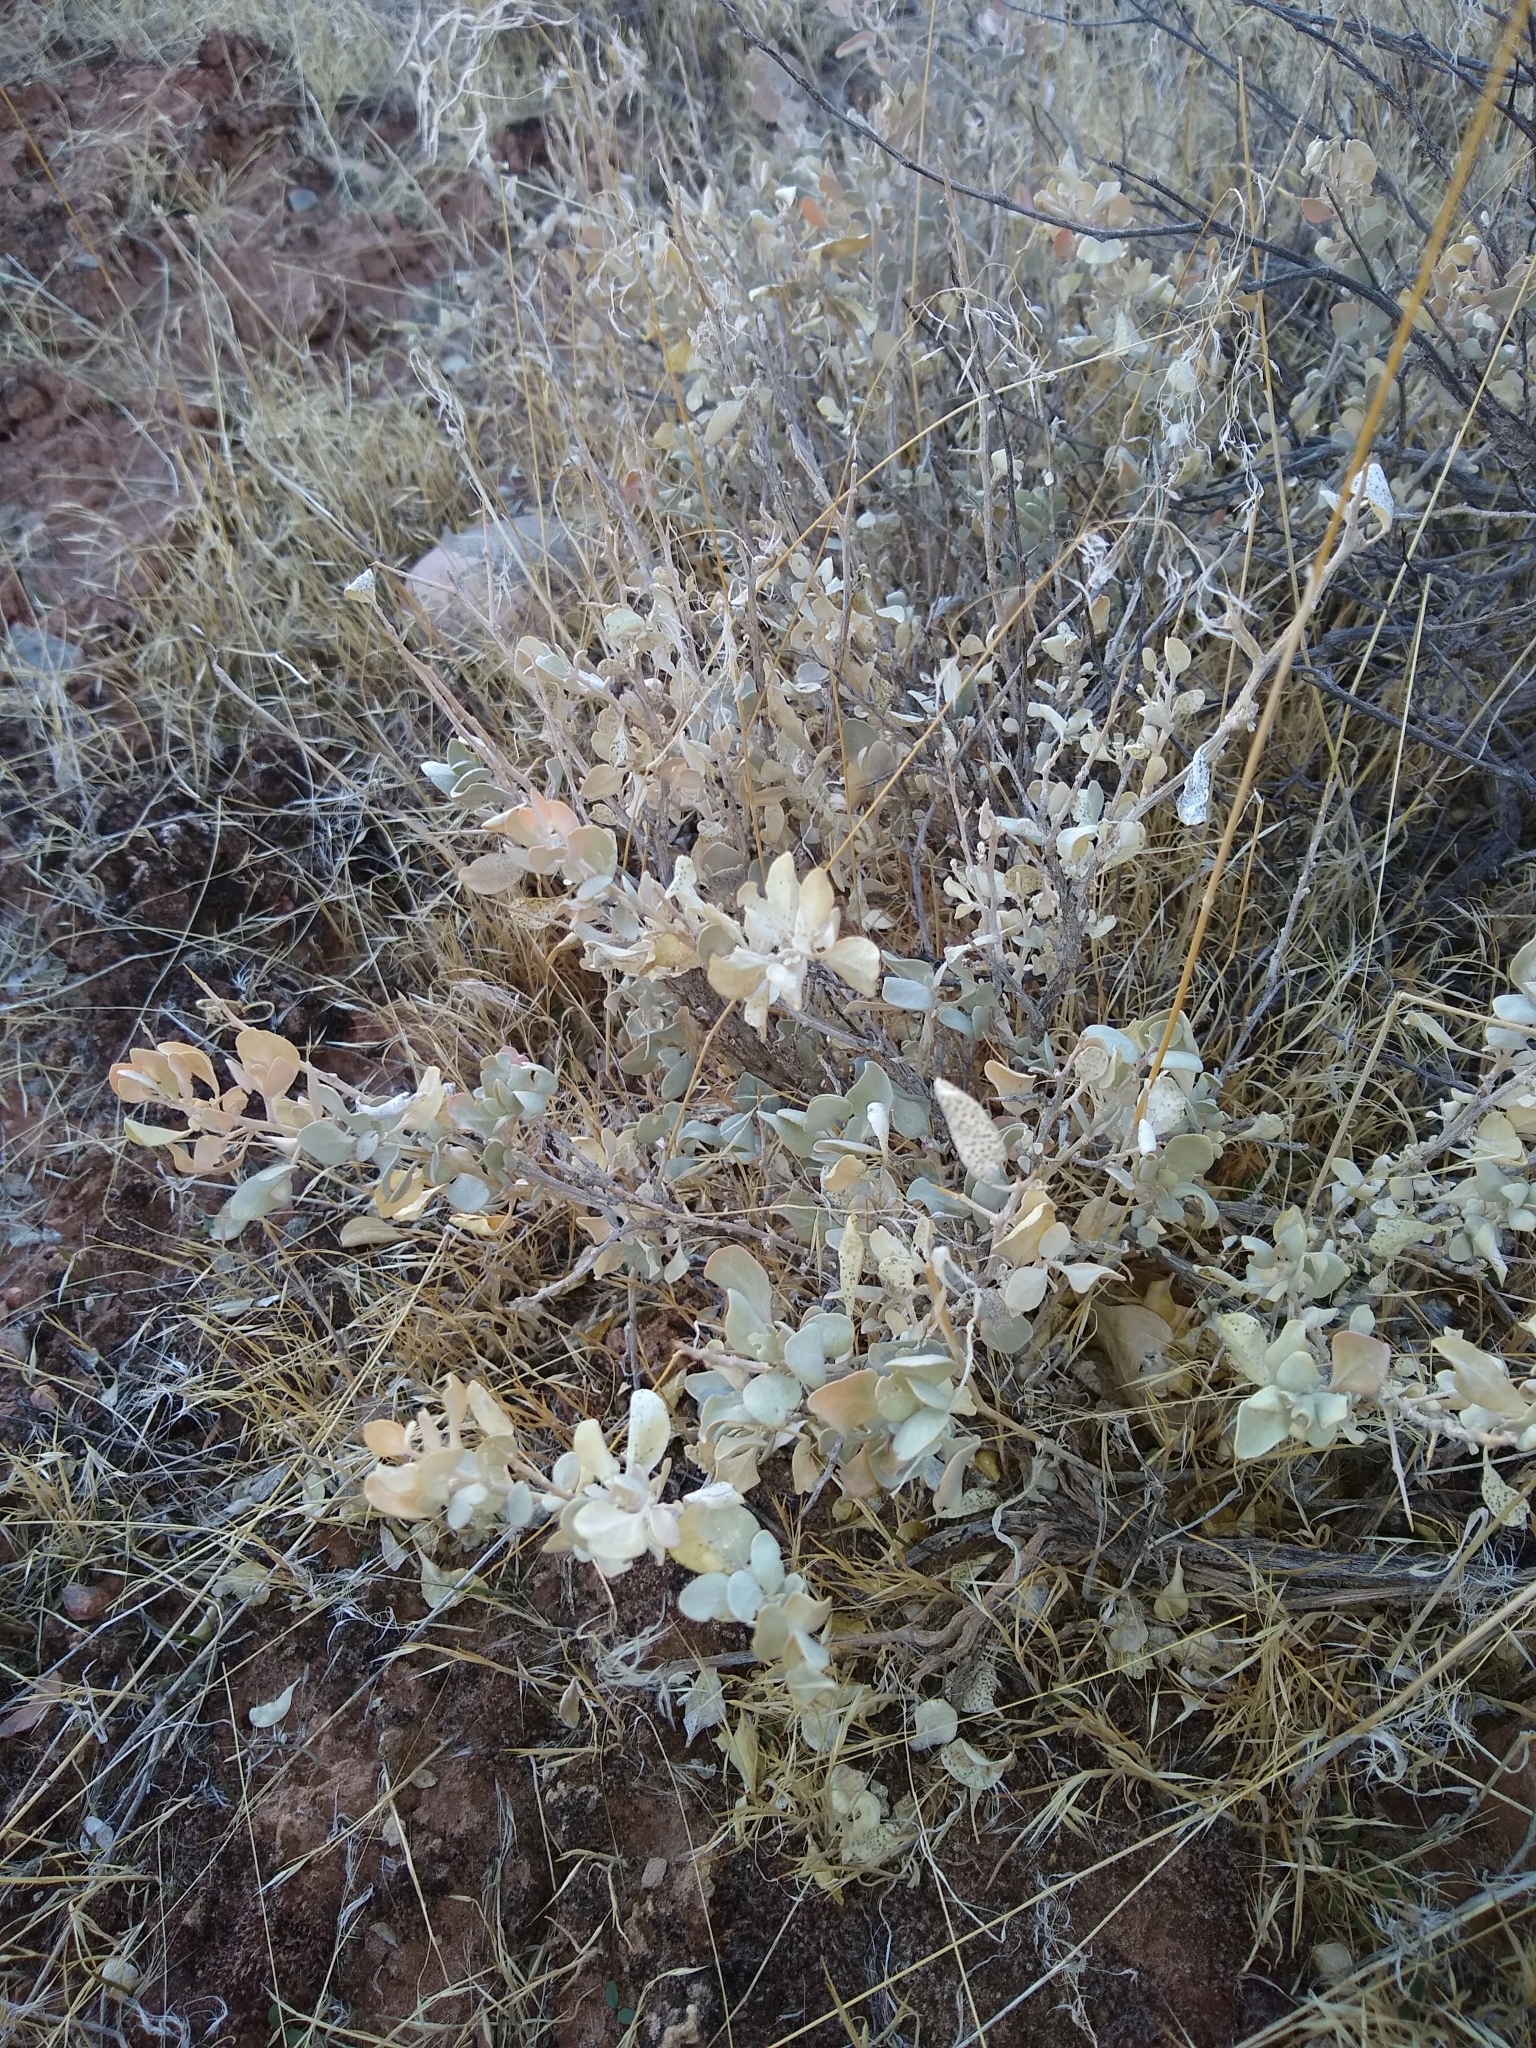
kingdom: Plantae
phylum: Tracheophyta
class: Magnoliopsida
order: Caryophyllales
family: Amaranthaceae
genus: Atriplex
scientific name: Atriplex confertifolia
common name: Shadscale
